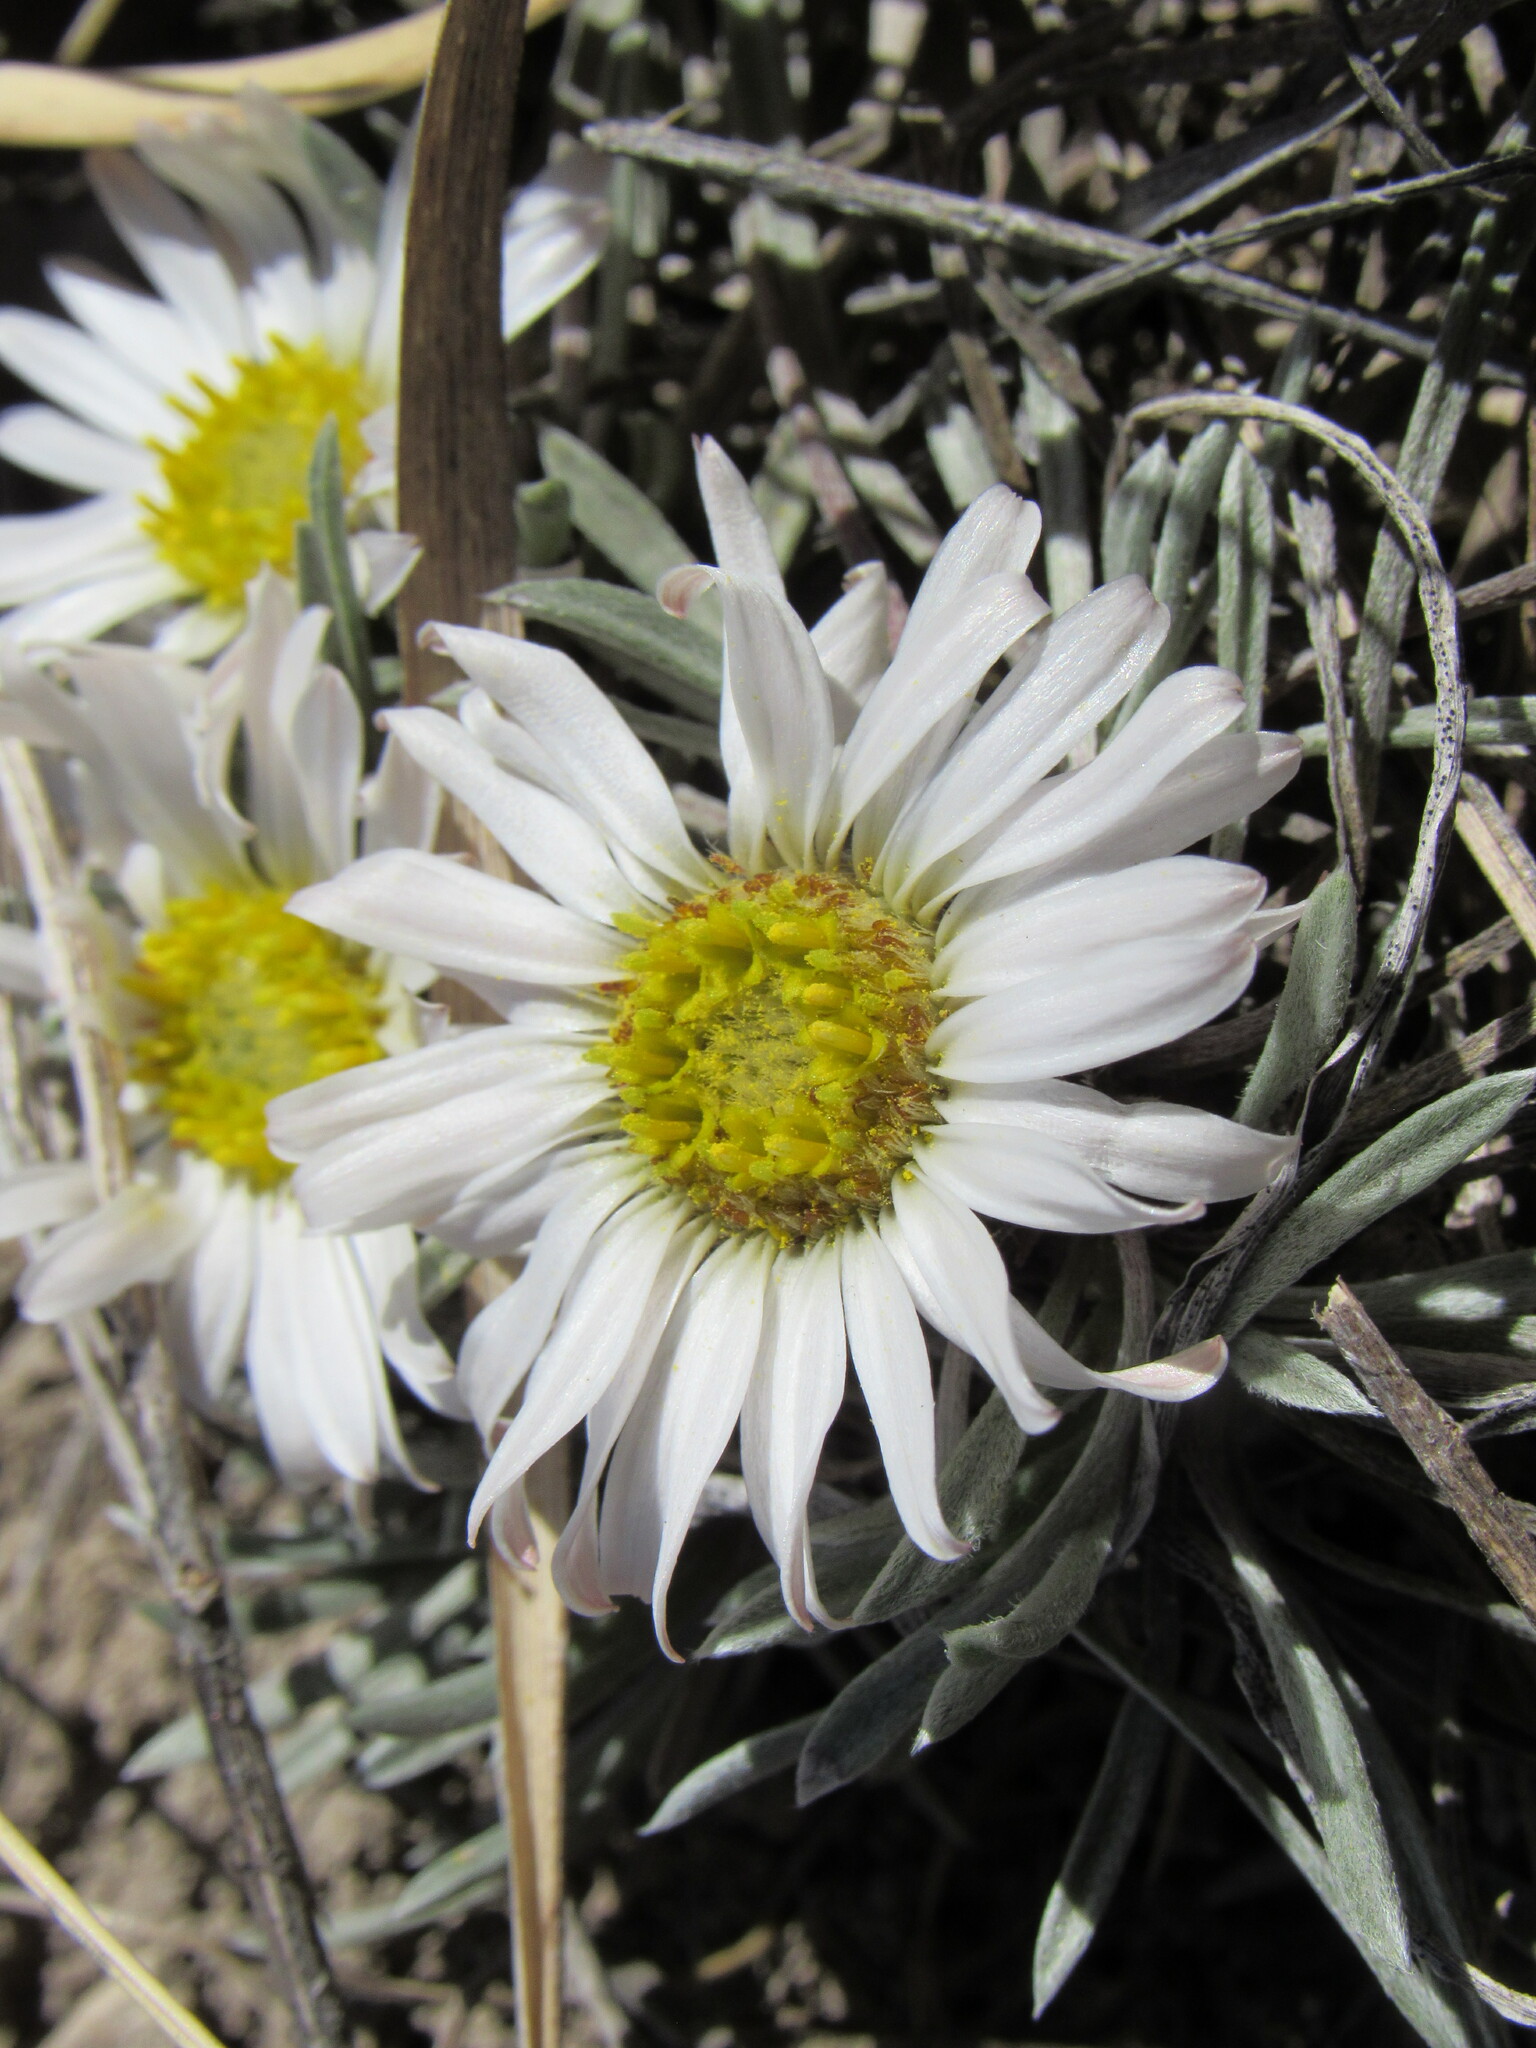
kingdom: Plantae
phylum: Tracheophyta
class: Magnoliopsida
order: Asterales
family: Asteraceae
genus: Townsendia
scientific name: Townsendia hookeri
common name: Hooker's townsend daisy
